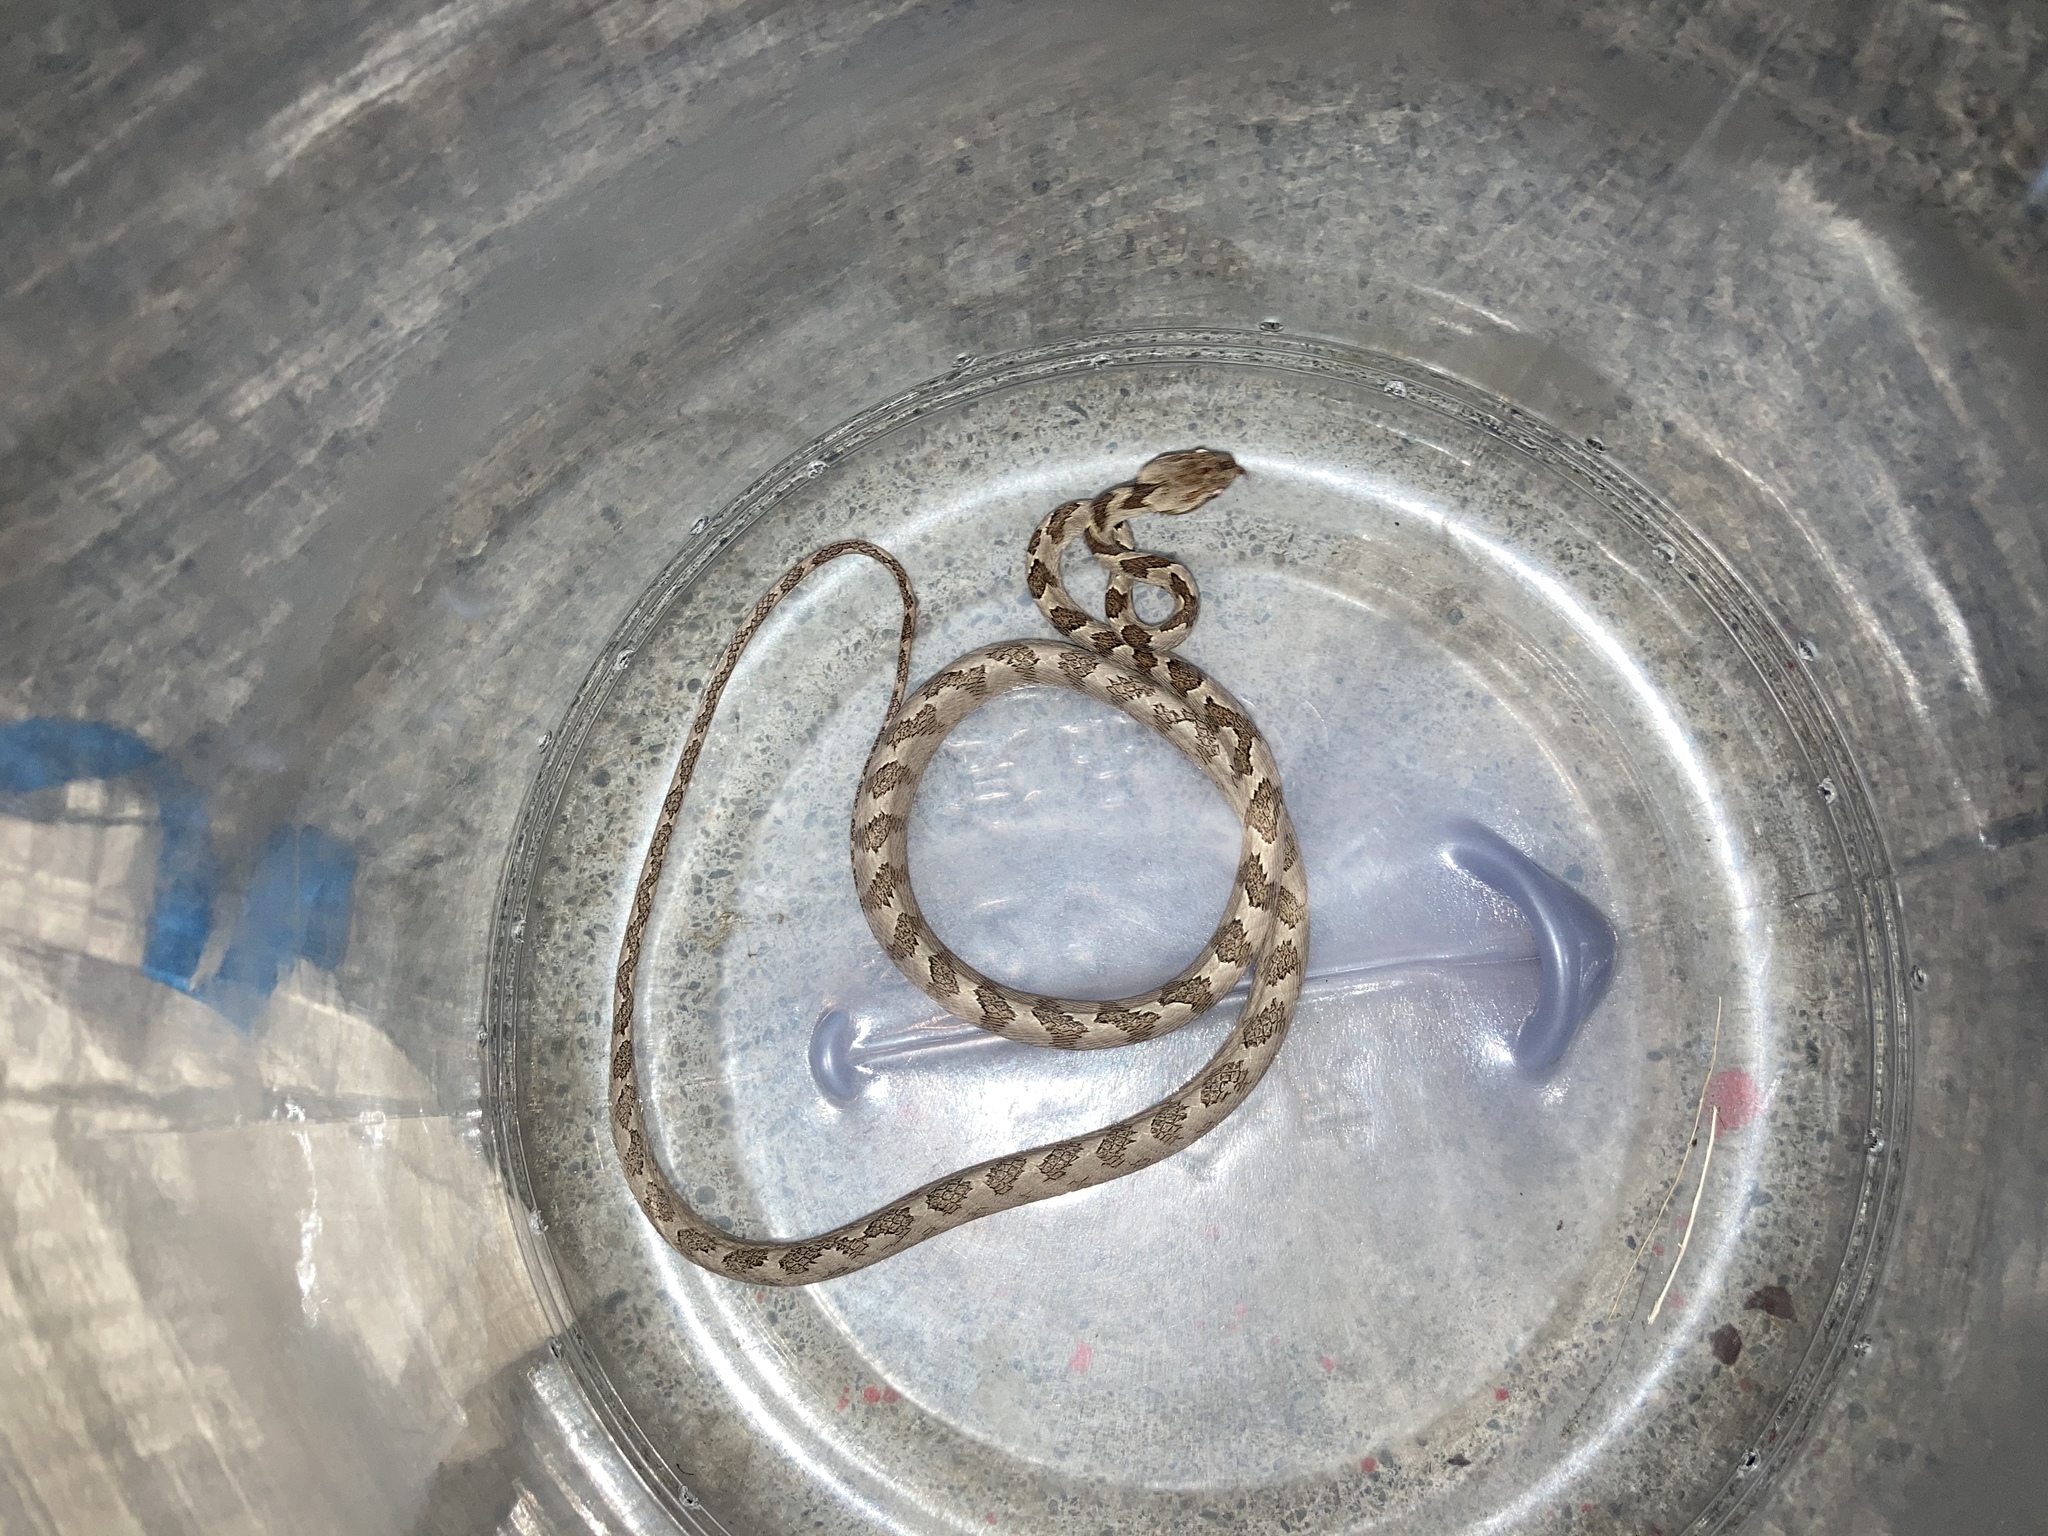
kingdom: Animalia
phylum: Chordata
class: Squamata
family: Colubridae
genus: Boiga
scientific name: Boiga kraepelini
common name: Kelung cat snake
